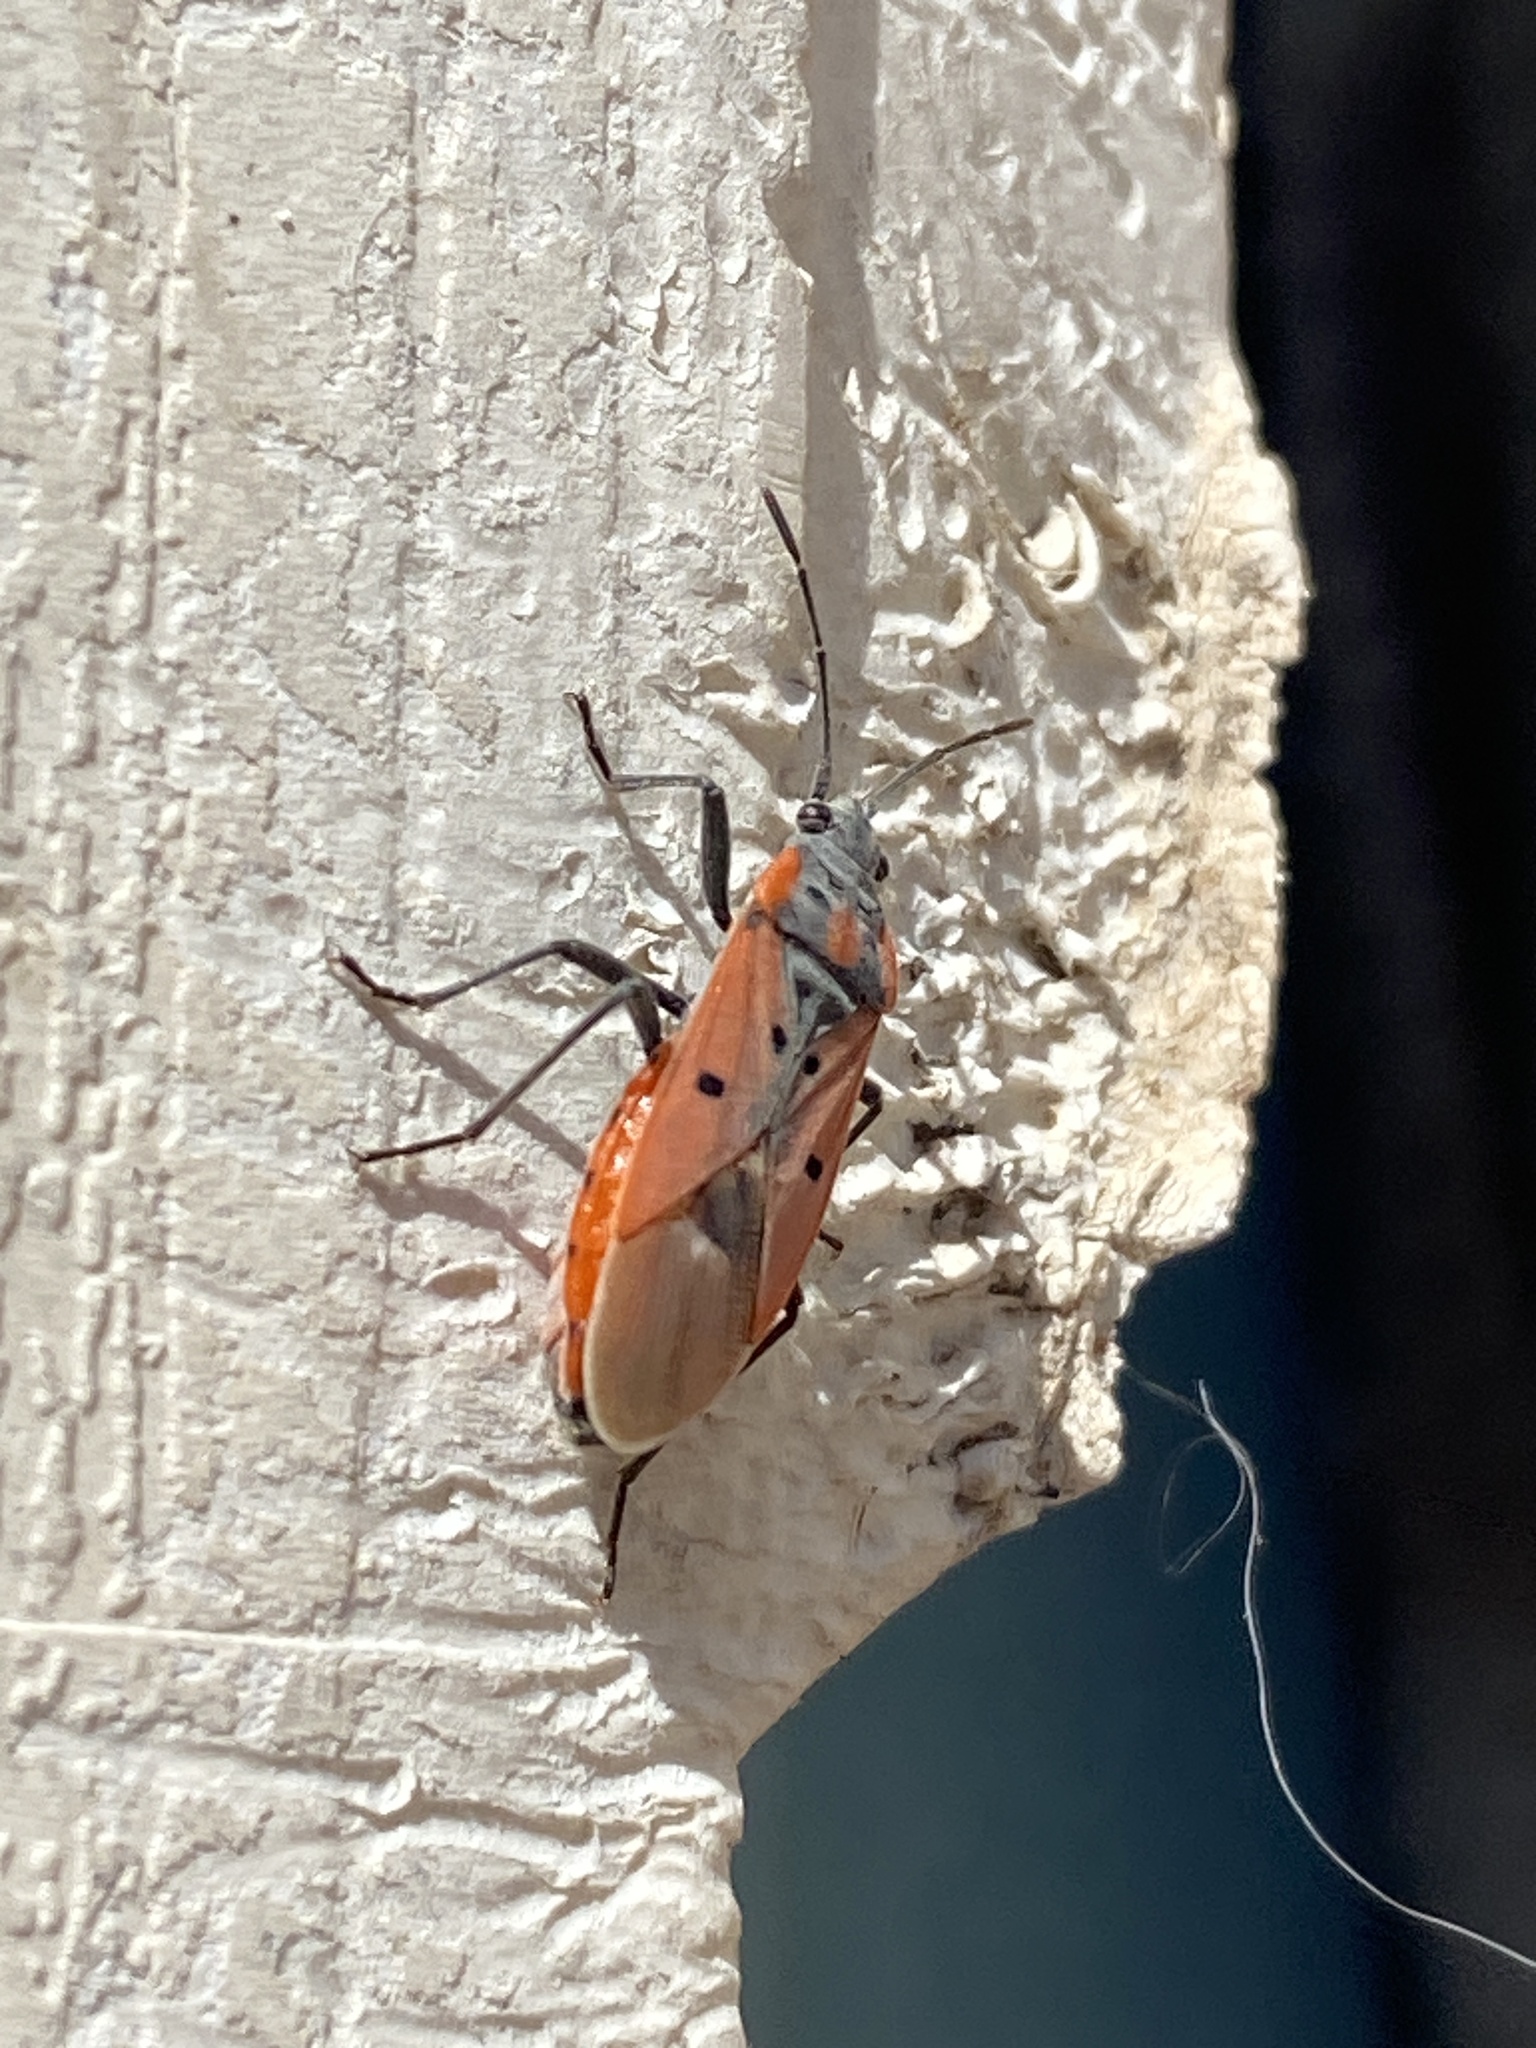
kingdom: Animalia
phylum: Arthropoda
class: Insecta
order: Hemiptera
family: Lygaeidae
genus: Lygaeus
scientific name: Lygaeus creticus
